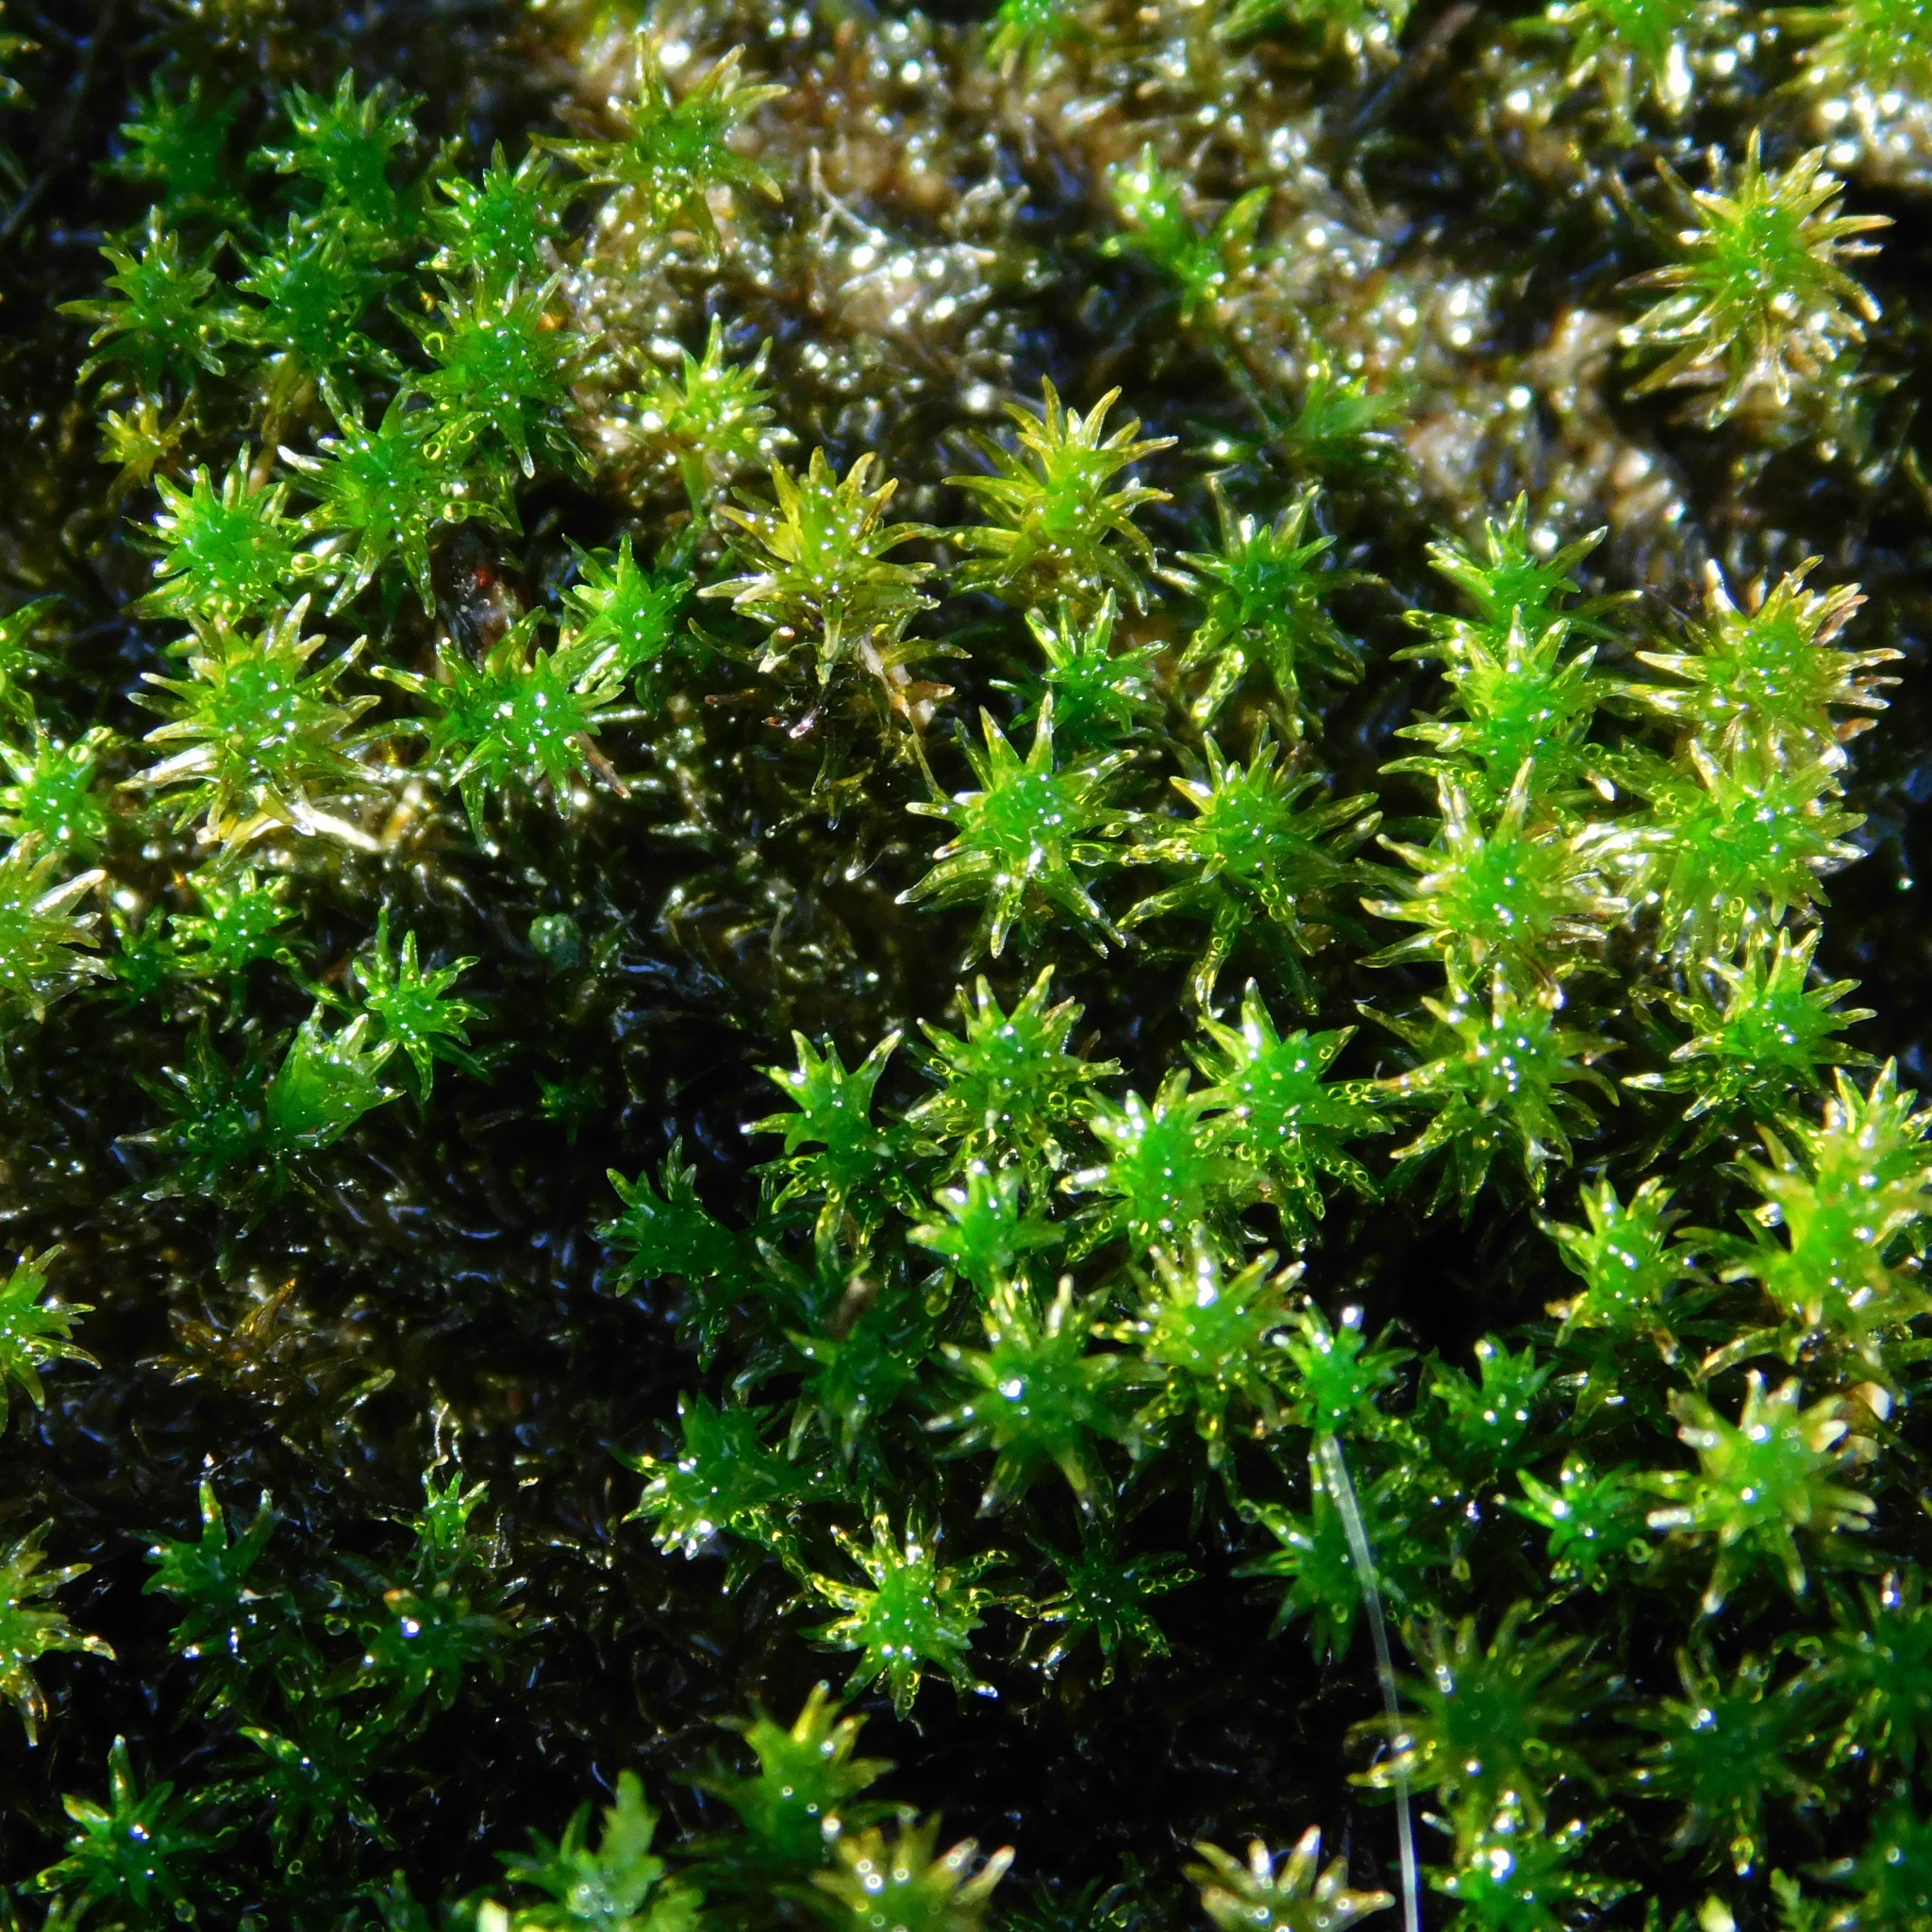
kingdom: Plantae
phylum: Bryophyta
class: Bryopsida
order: Pottiales
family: Pottiaceae
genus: Tridontium
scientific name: Tridontium tasmanicum
